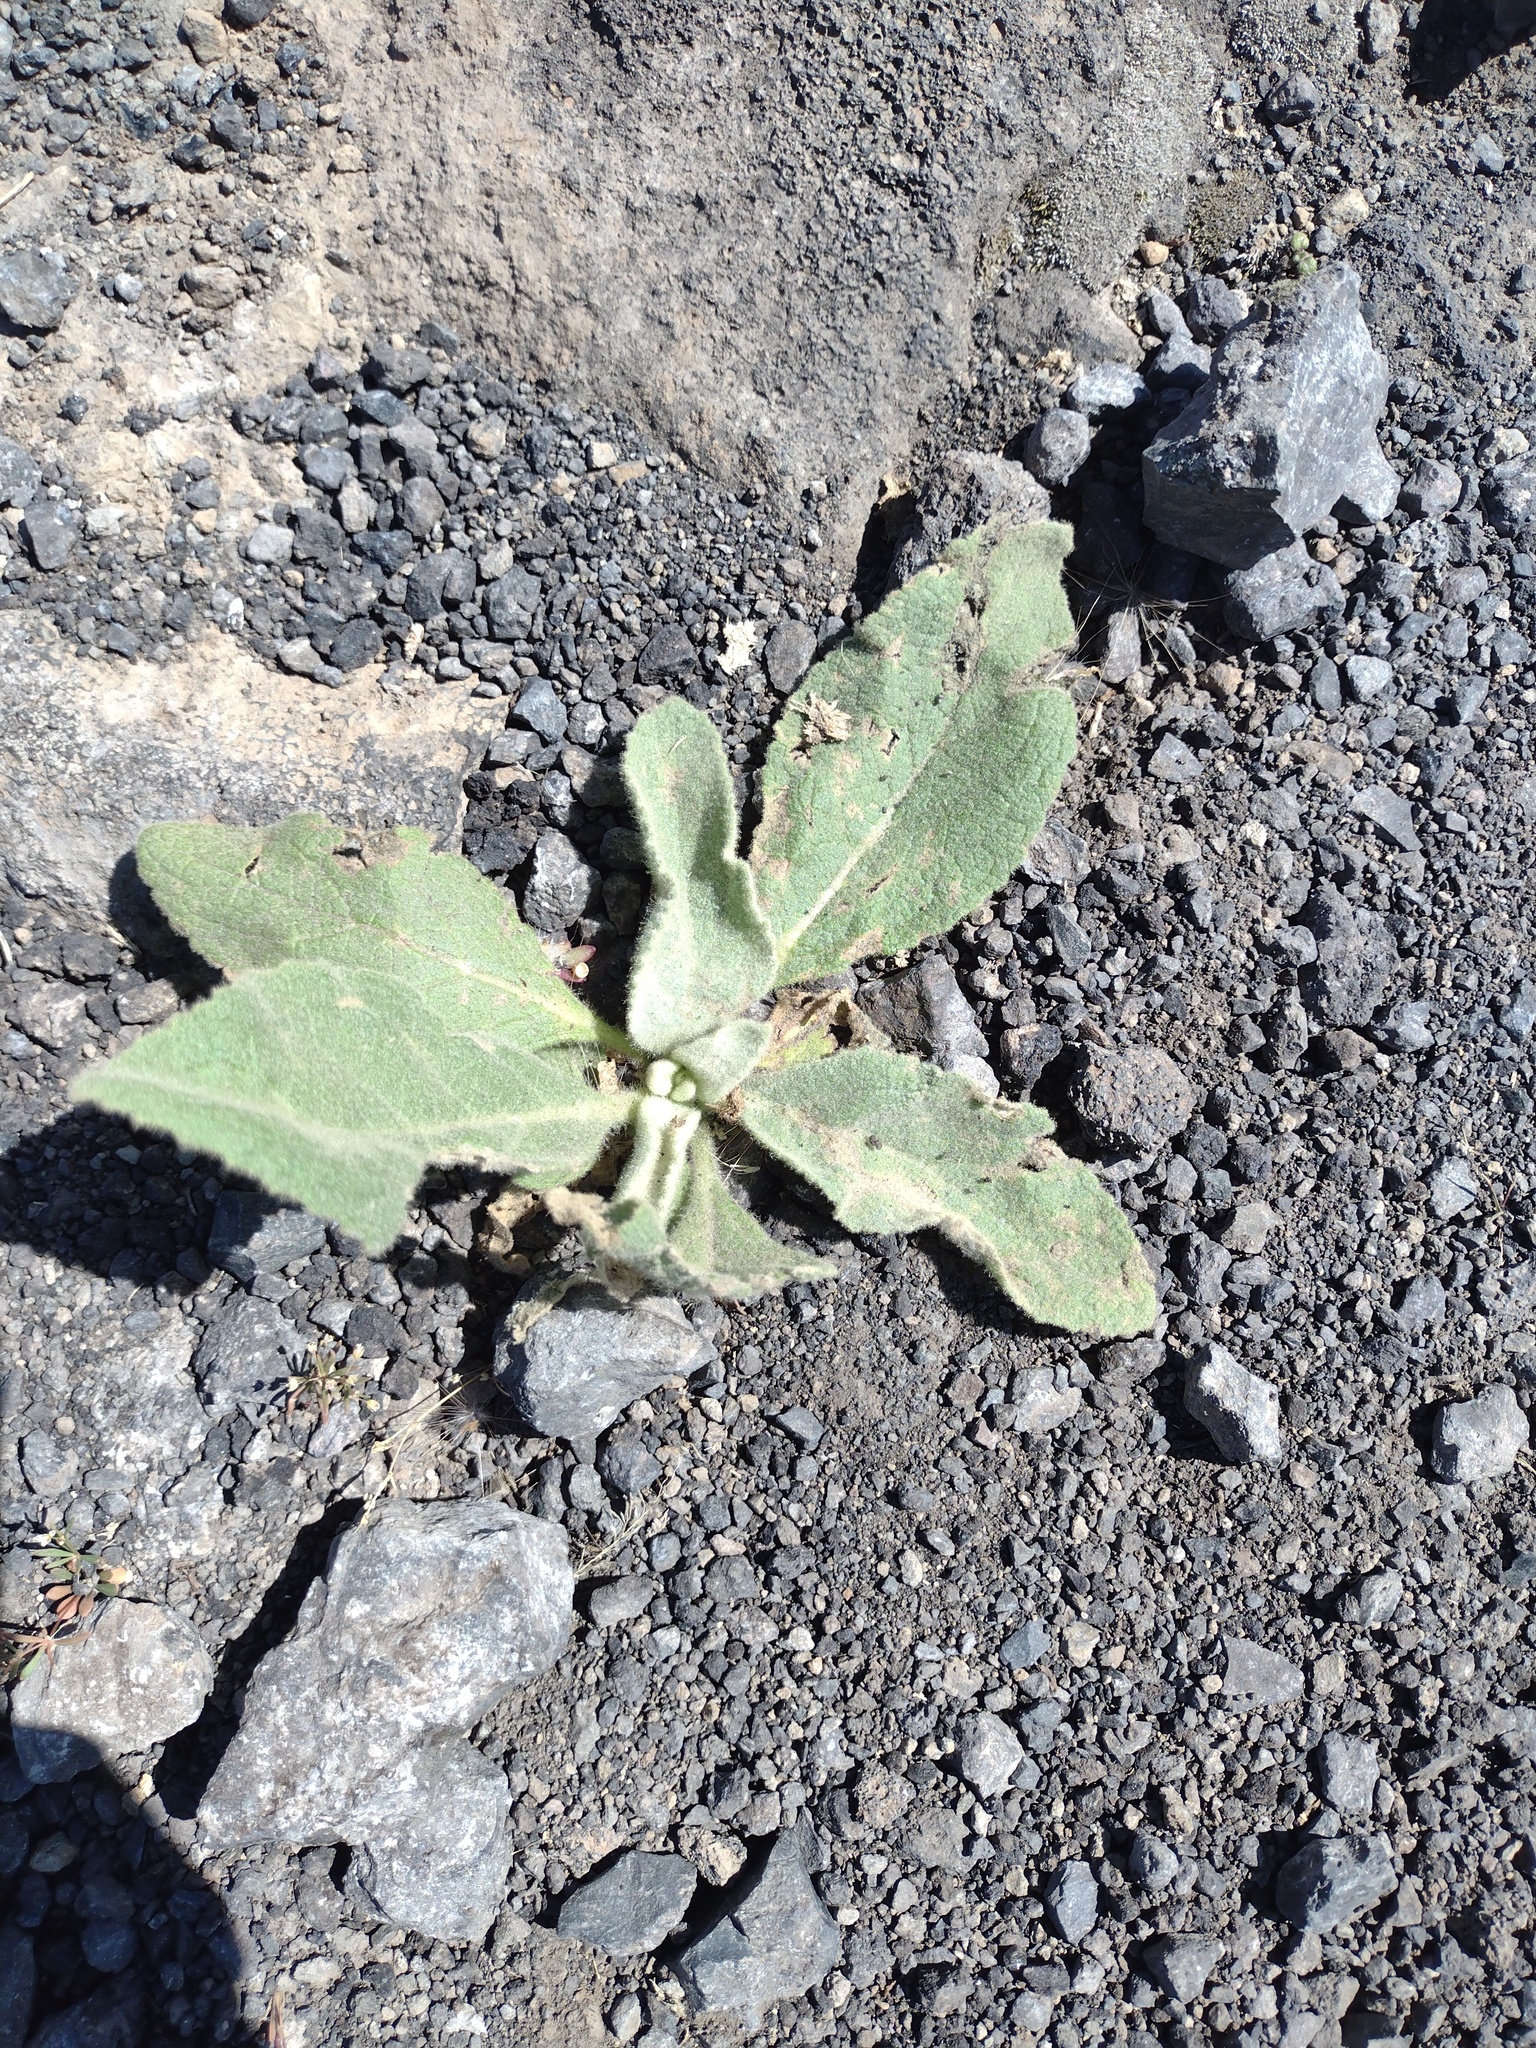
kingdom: Plantae
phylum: Tracheophyta
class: Magnoliopsida
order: Lamiales
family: Scrophulariaceae
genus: Verbascum
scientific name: Verbascum thapsus
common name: Common mullein
